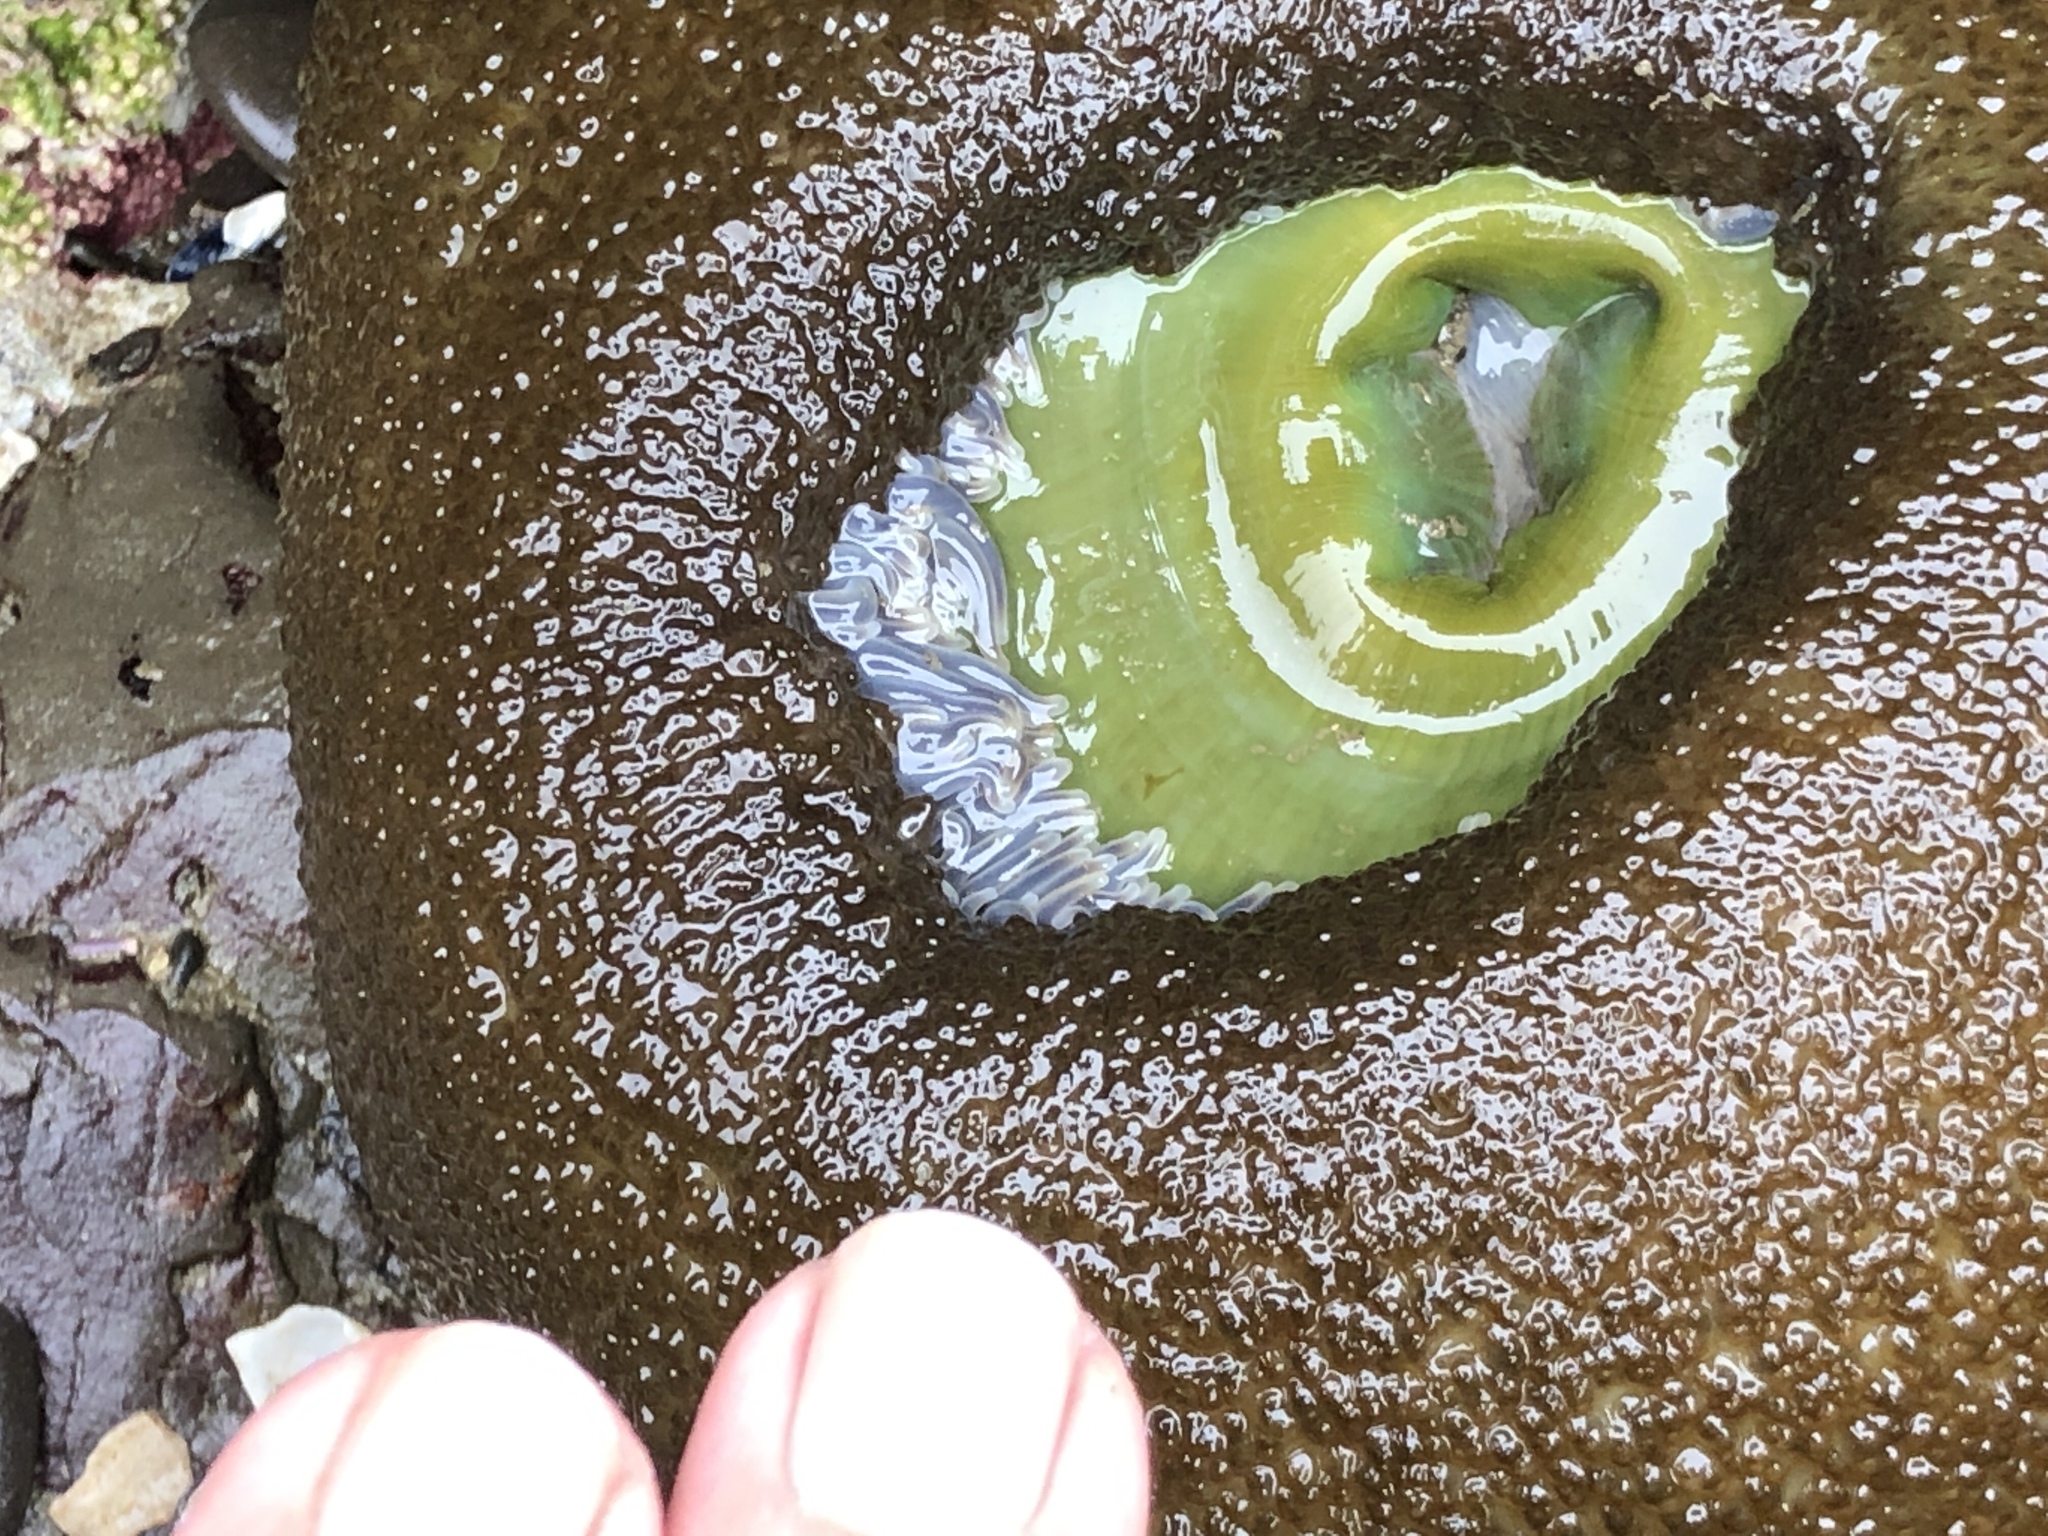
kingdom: Animalia
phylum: Cnidaria
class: Anthozoa
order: Actiniaria
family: Actiniidae
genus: Anthopleura
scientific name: Anthopleura xanthogrammica
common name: Giant green anemone
